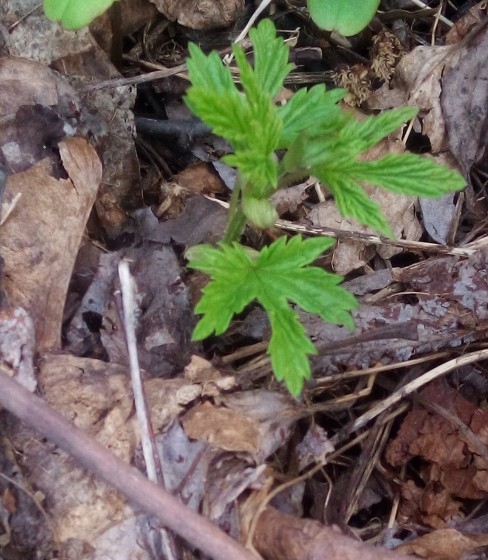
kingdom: Plantae
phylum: Tracheophyta
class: Magnoliopsida
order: Rosales
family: Cannabaceae
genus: Humulus
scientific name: Humulus lupulus
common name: Hop
